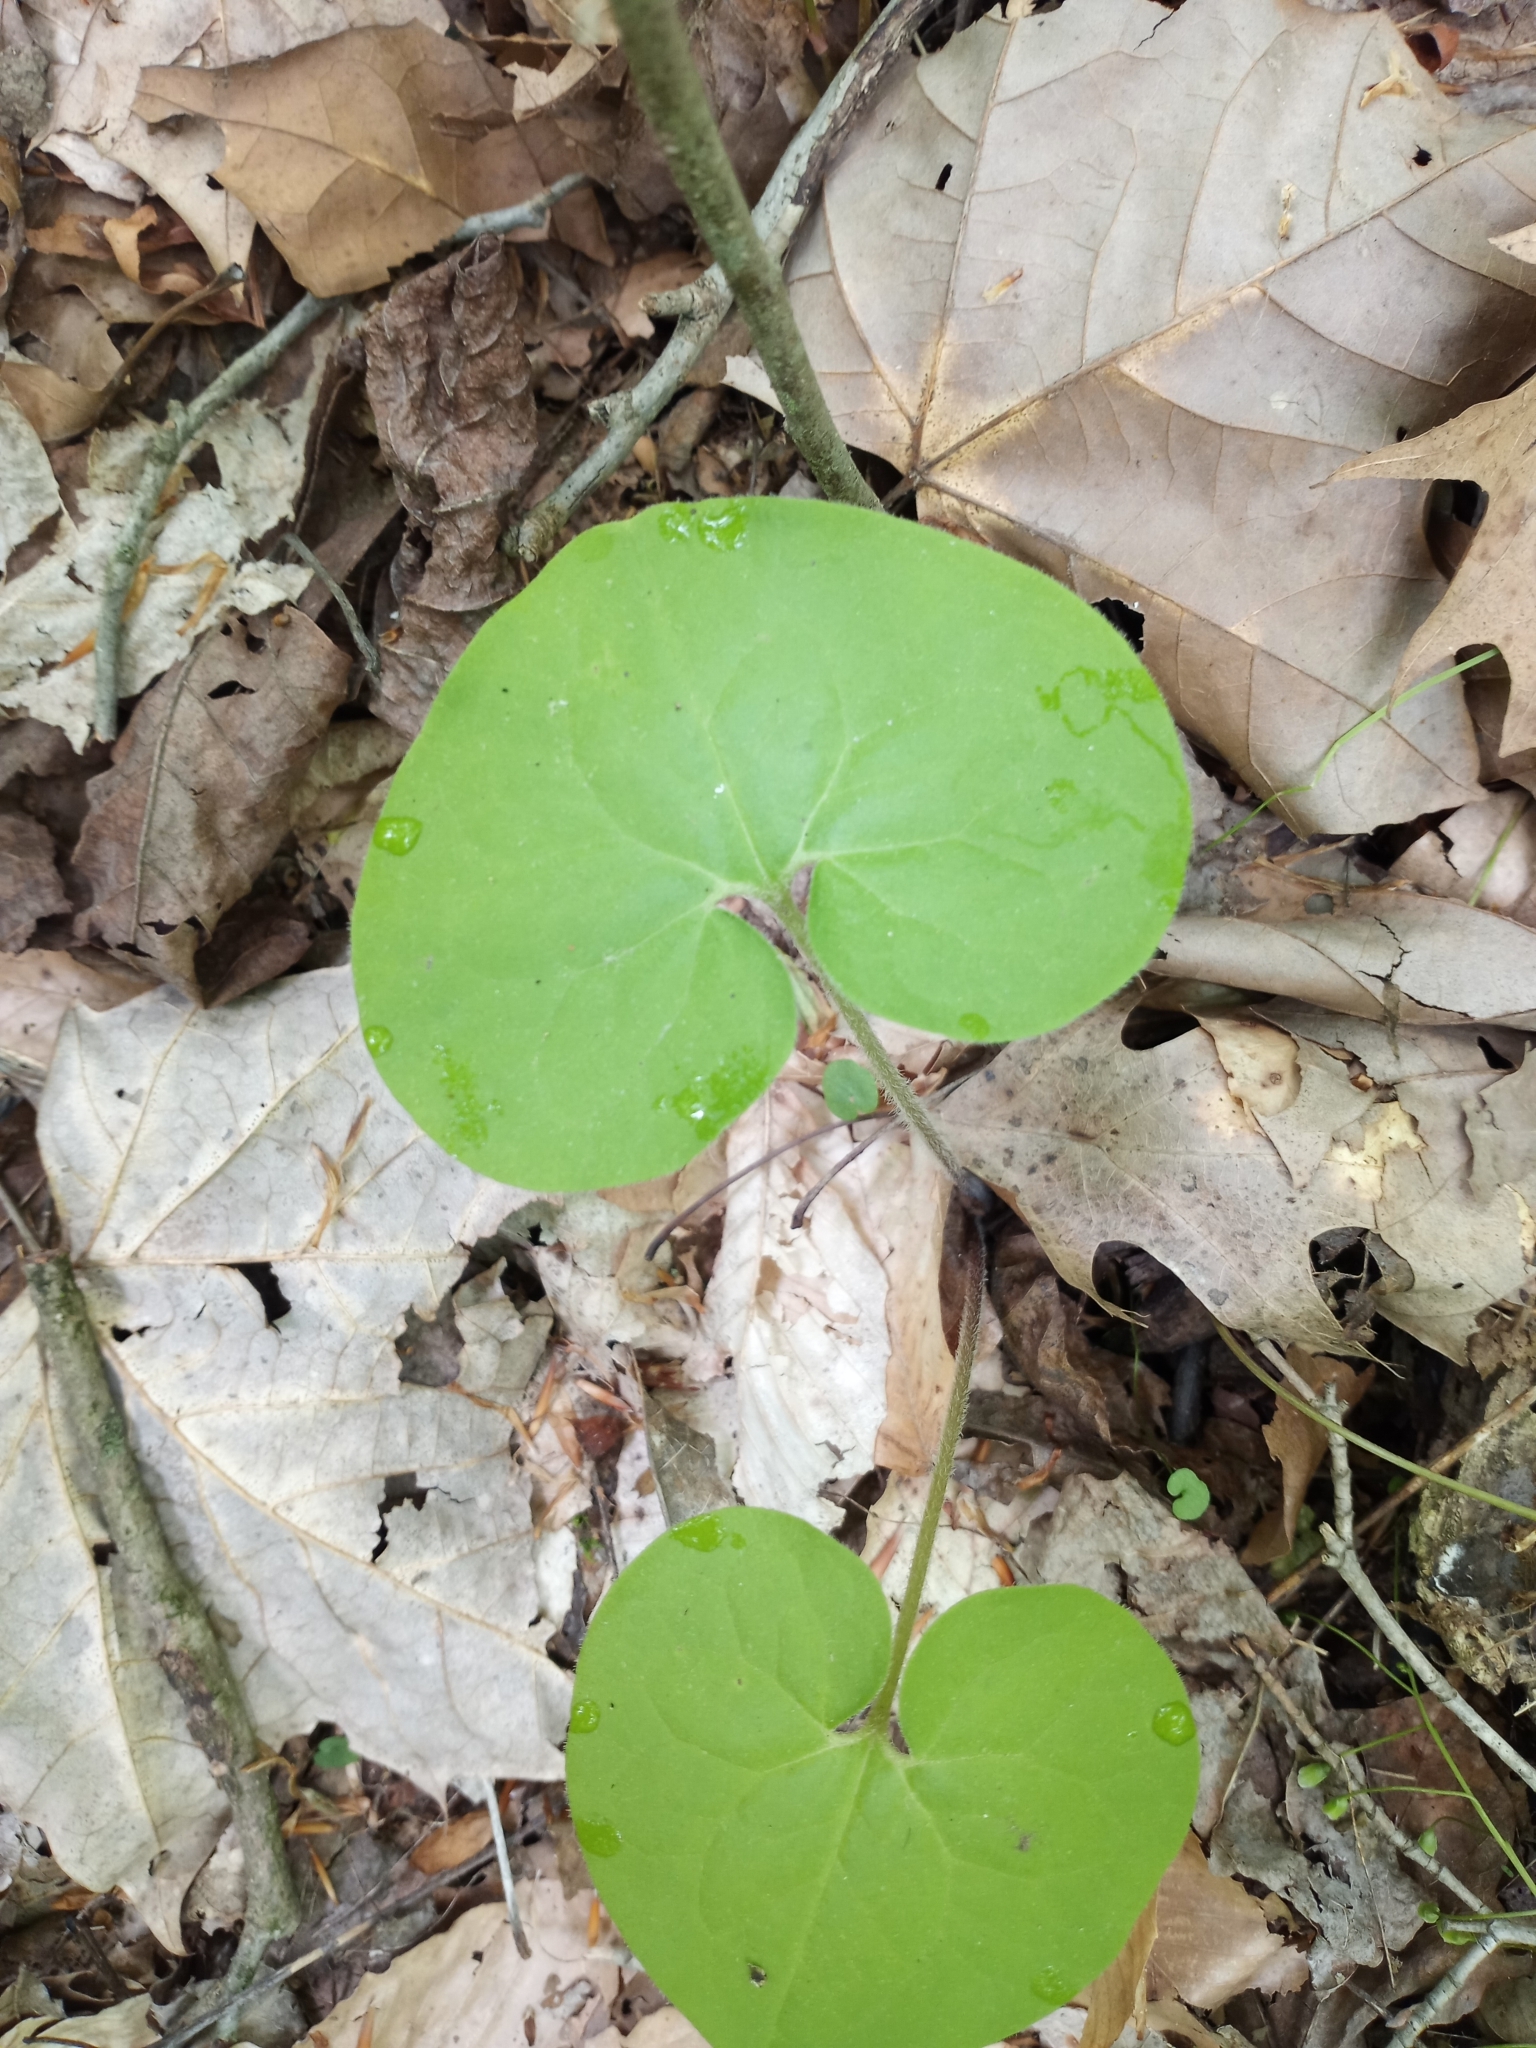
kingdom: Plantae
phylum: Tracheophyta
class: Magnoliopsida
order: Piperales
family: Aristolochiaceae
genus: Asarum
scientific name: Asarum canadense
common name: Wild ginger
